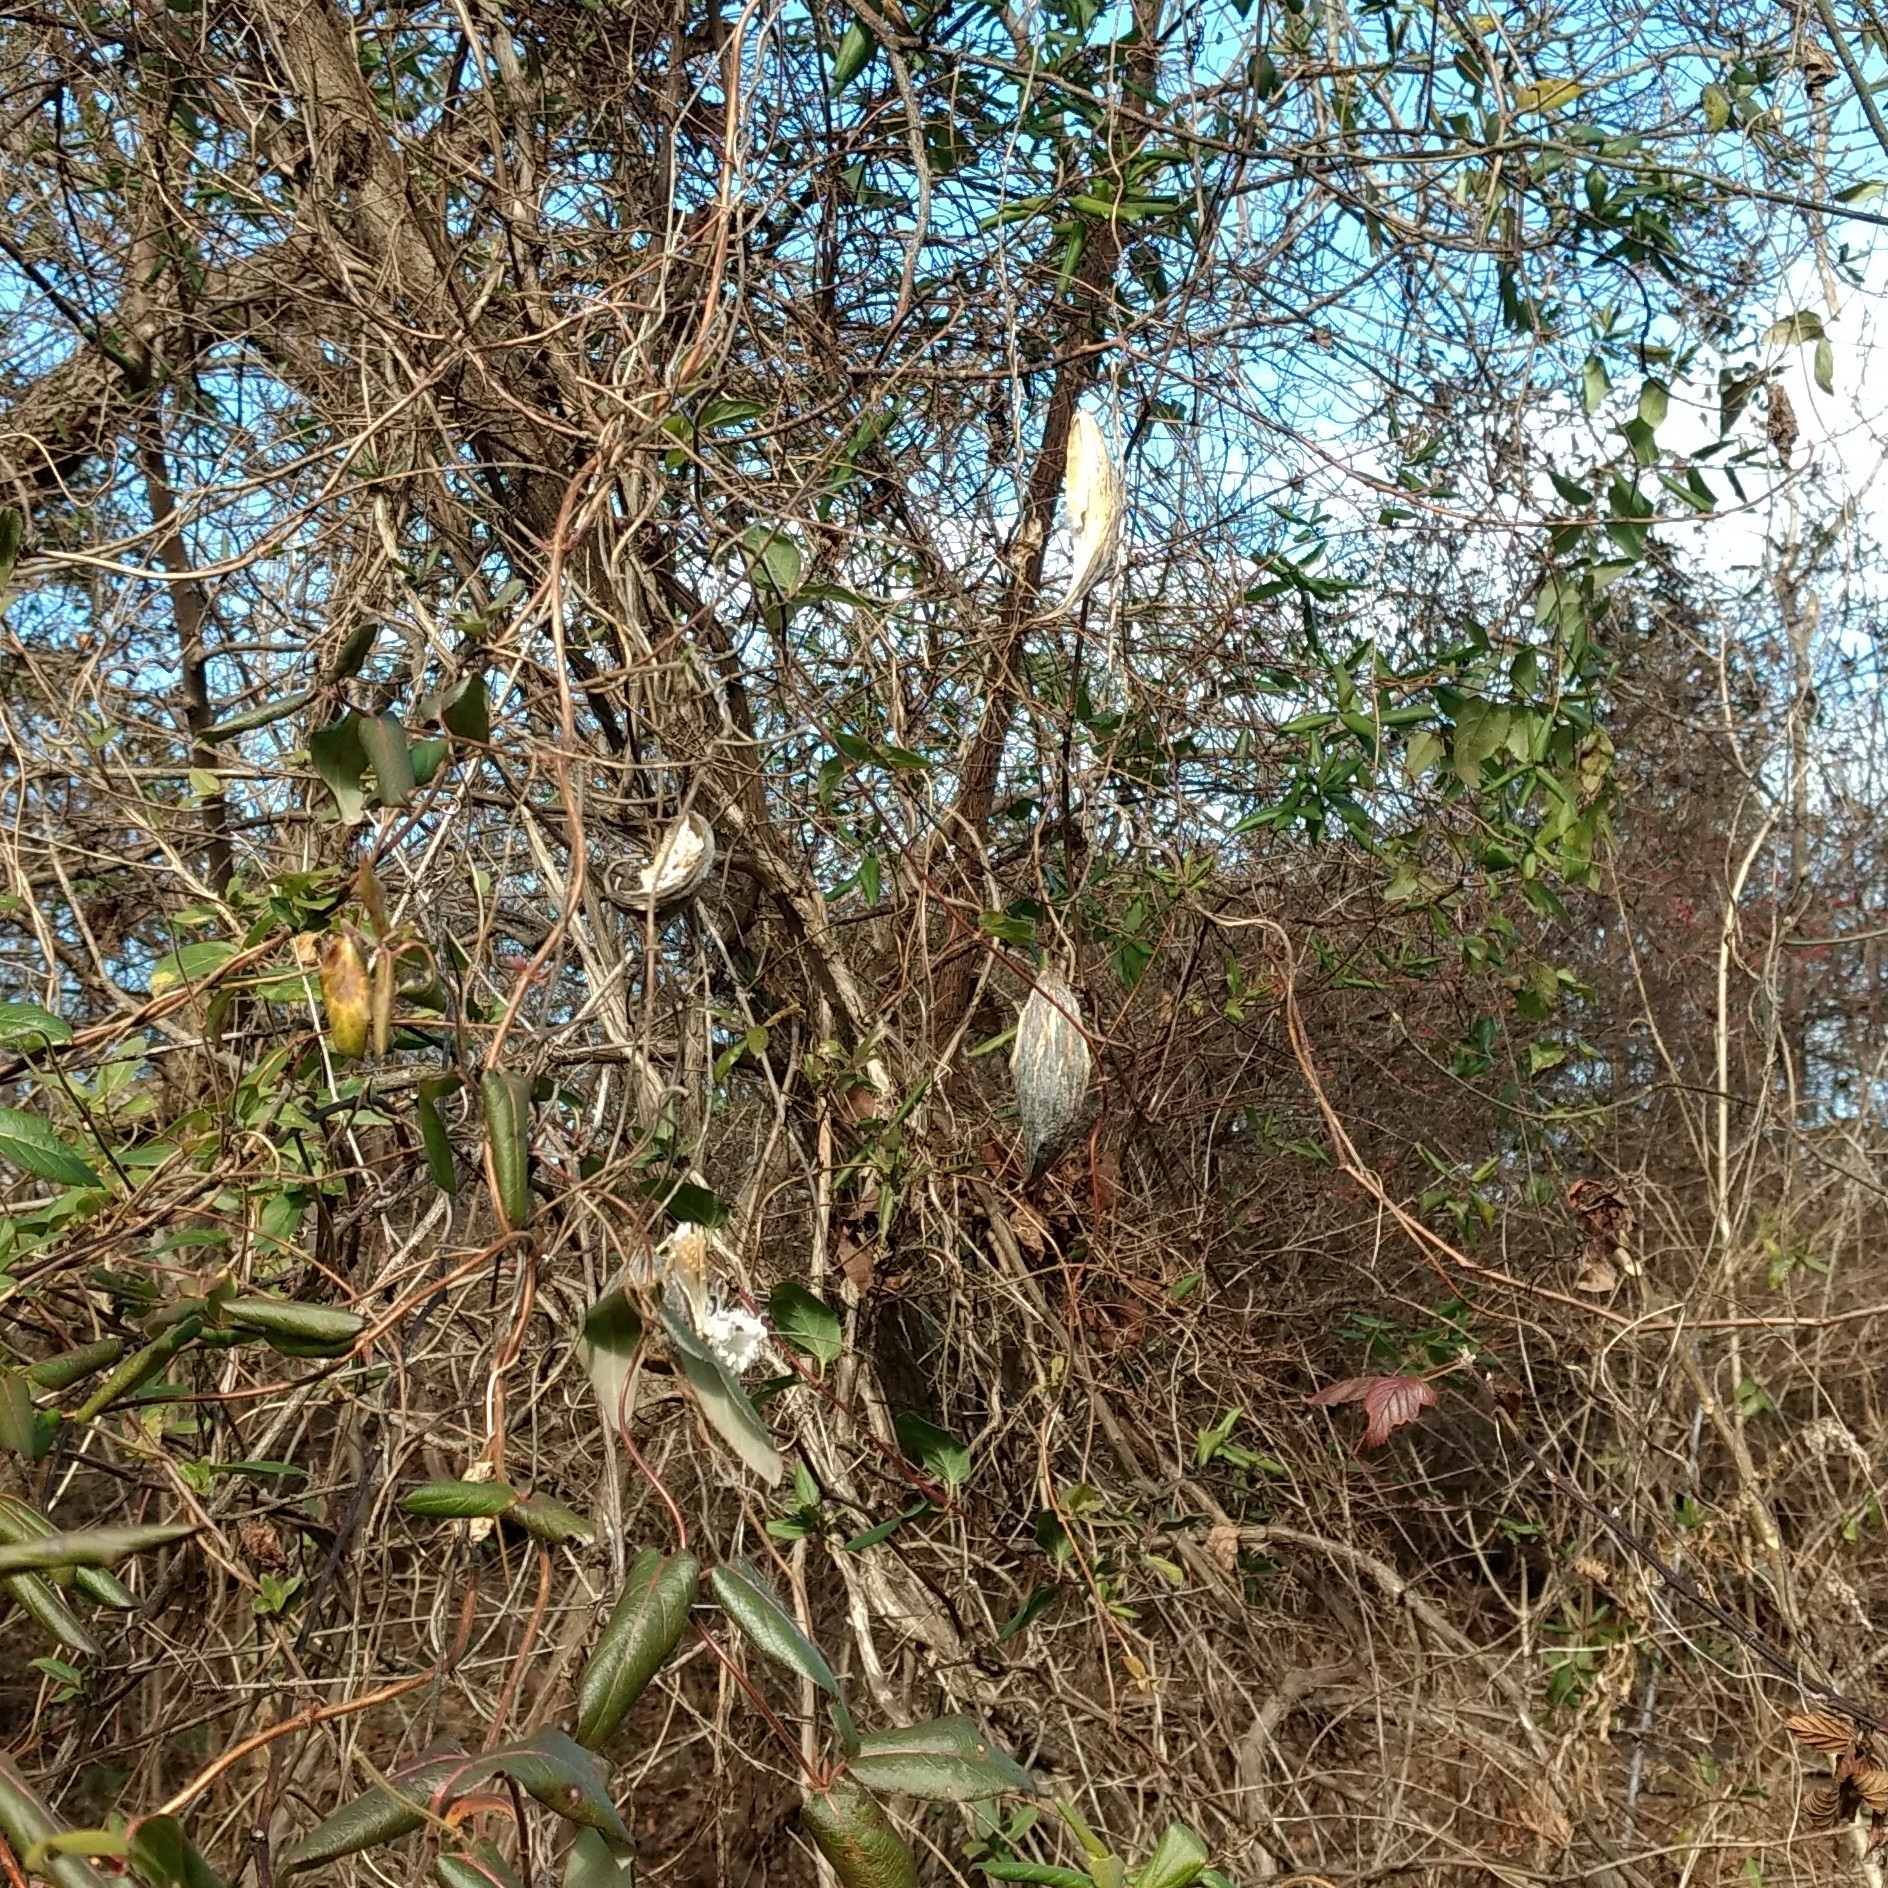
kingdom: Plantae
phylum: Tracheophyta
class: Magnoliopsida
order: Gentianales
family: Apocynaceae
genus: Cynanchum
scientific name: Cynanchum laeve
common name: Sandvine
